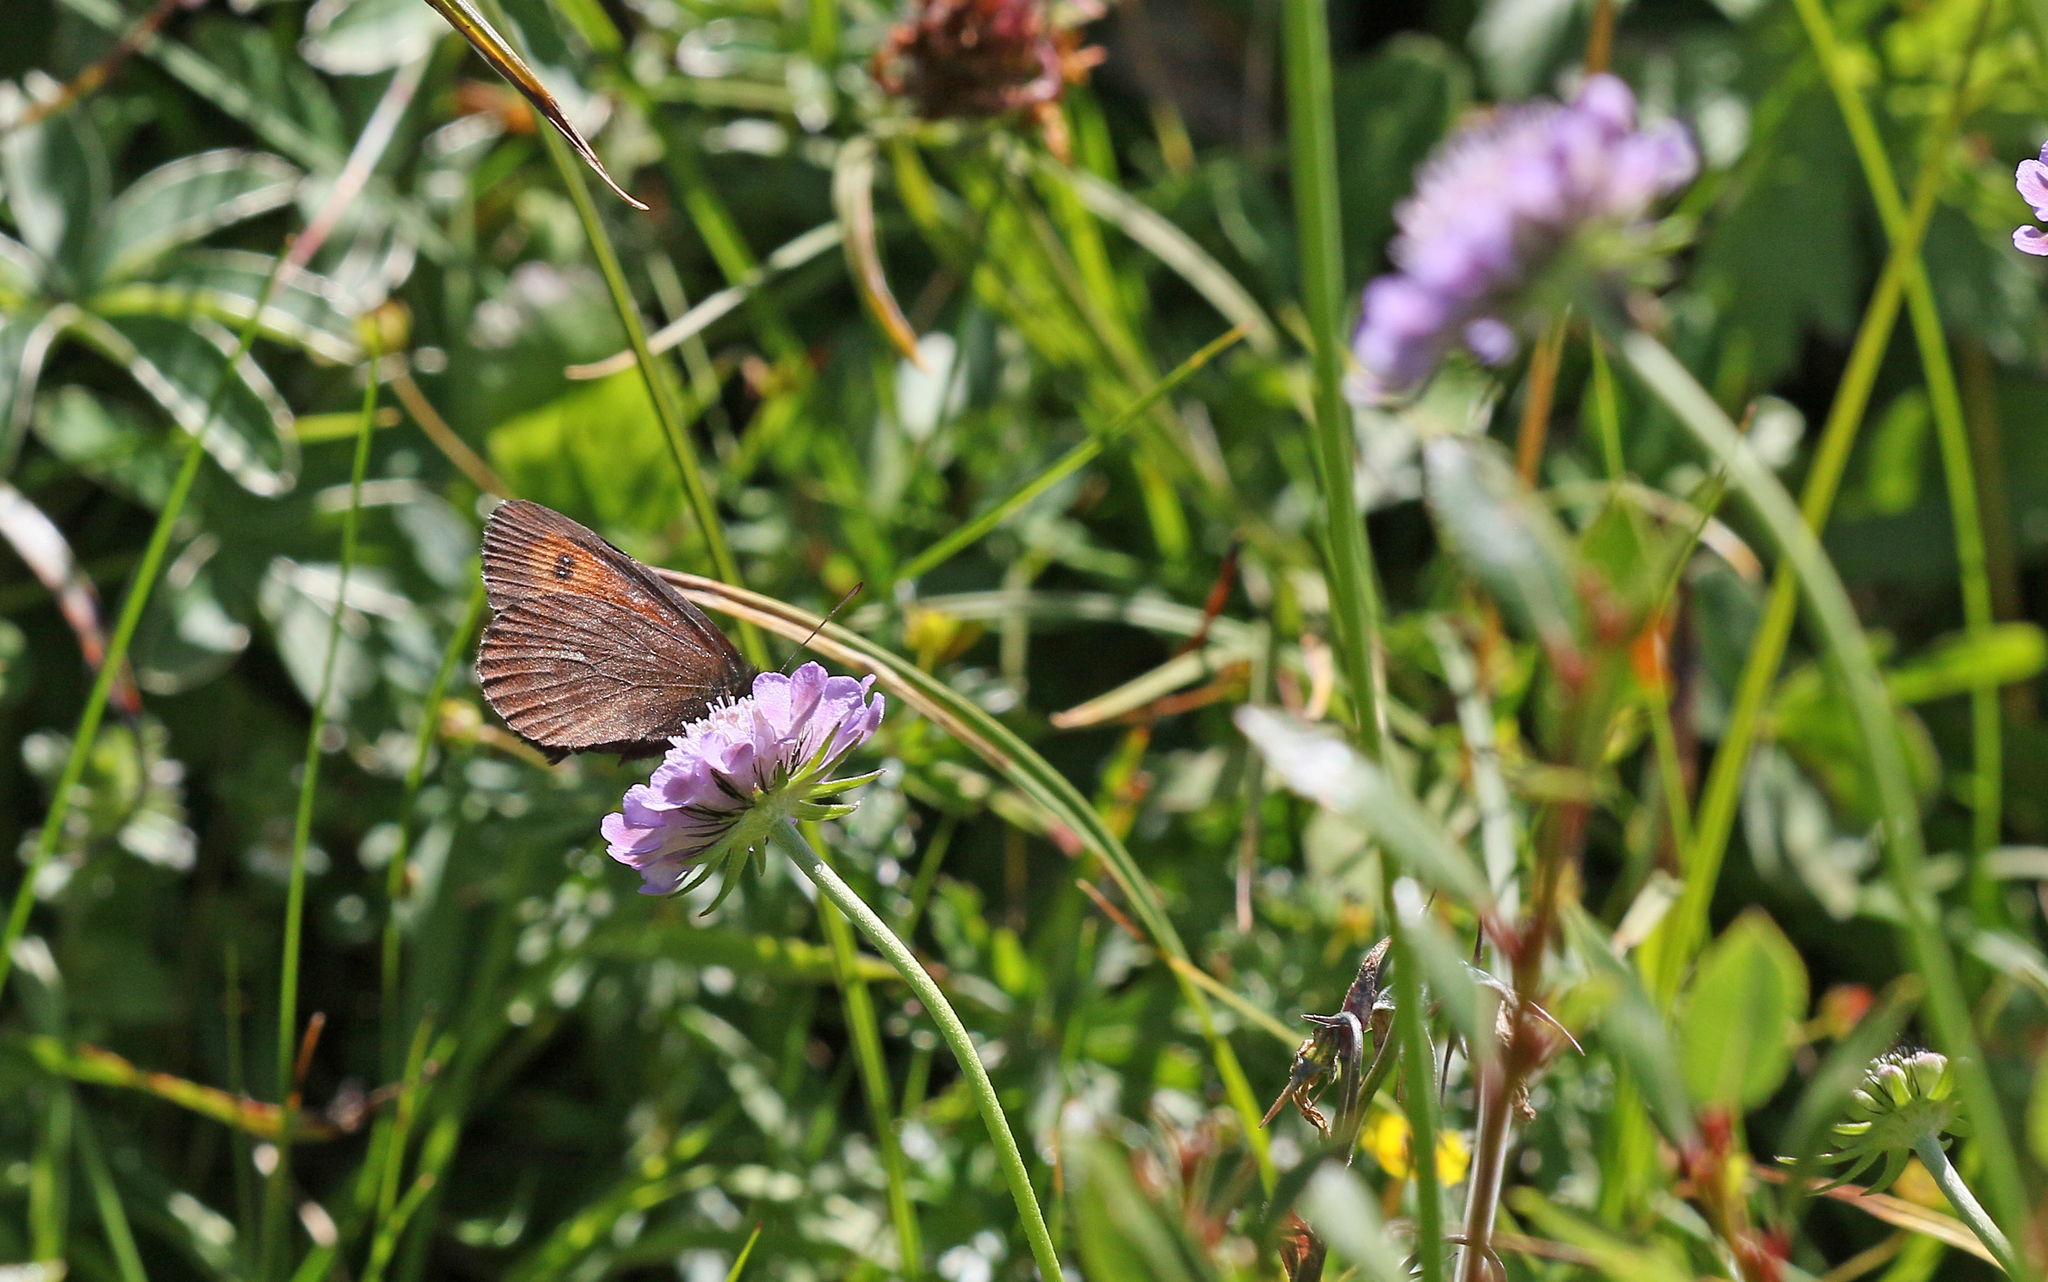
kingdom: Animalia
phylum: Arthropoda
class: Insecta
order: Lepidoptera
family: Nymphalidae
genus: Erebia
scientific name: Erebia euryale
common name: Large ringlet
